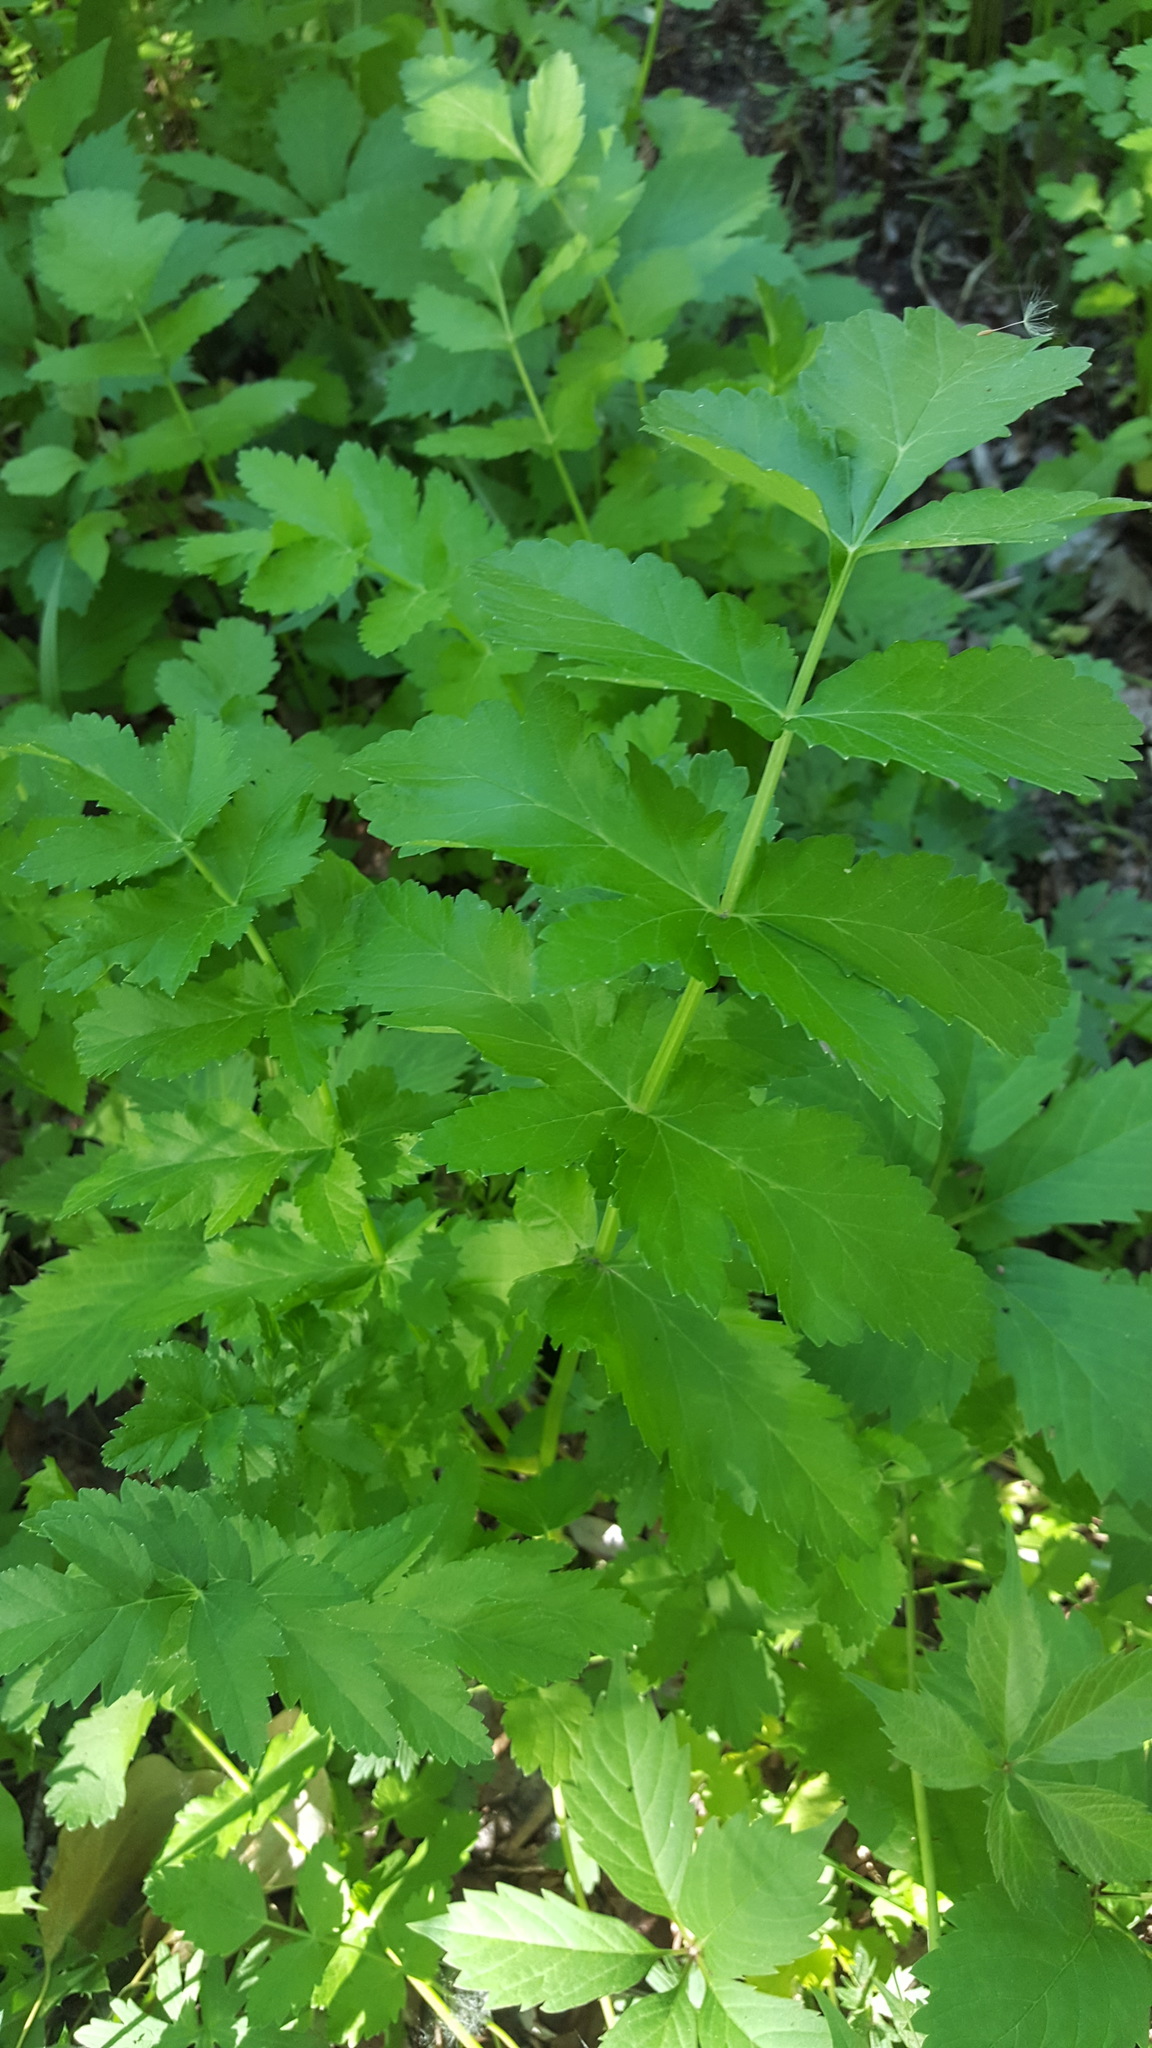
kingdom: Plantae
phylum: Tracheophyta
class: Magnoliopsida
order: Apiales
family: Apiaceae
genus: Pastinaca
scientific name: Pastinaca sativa
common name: Wild parsnip
